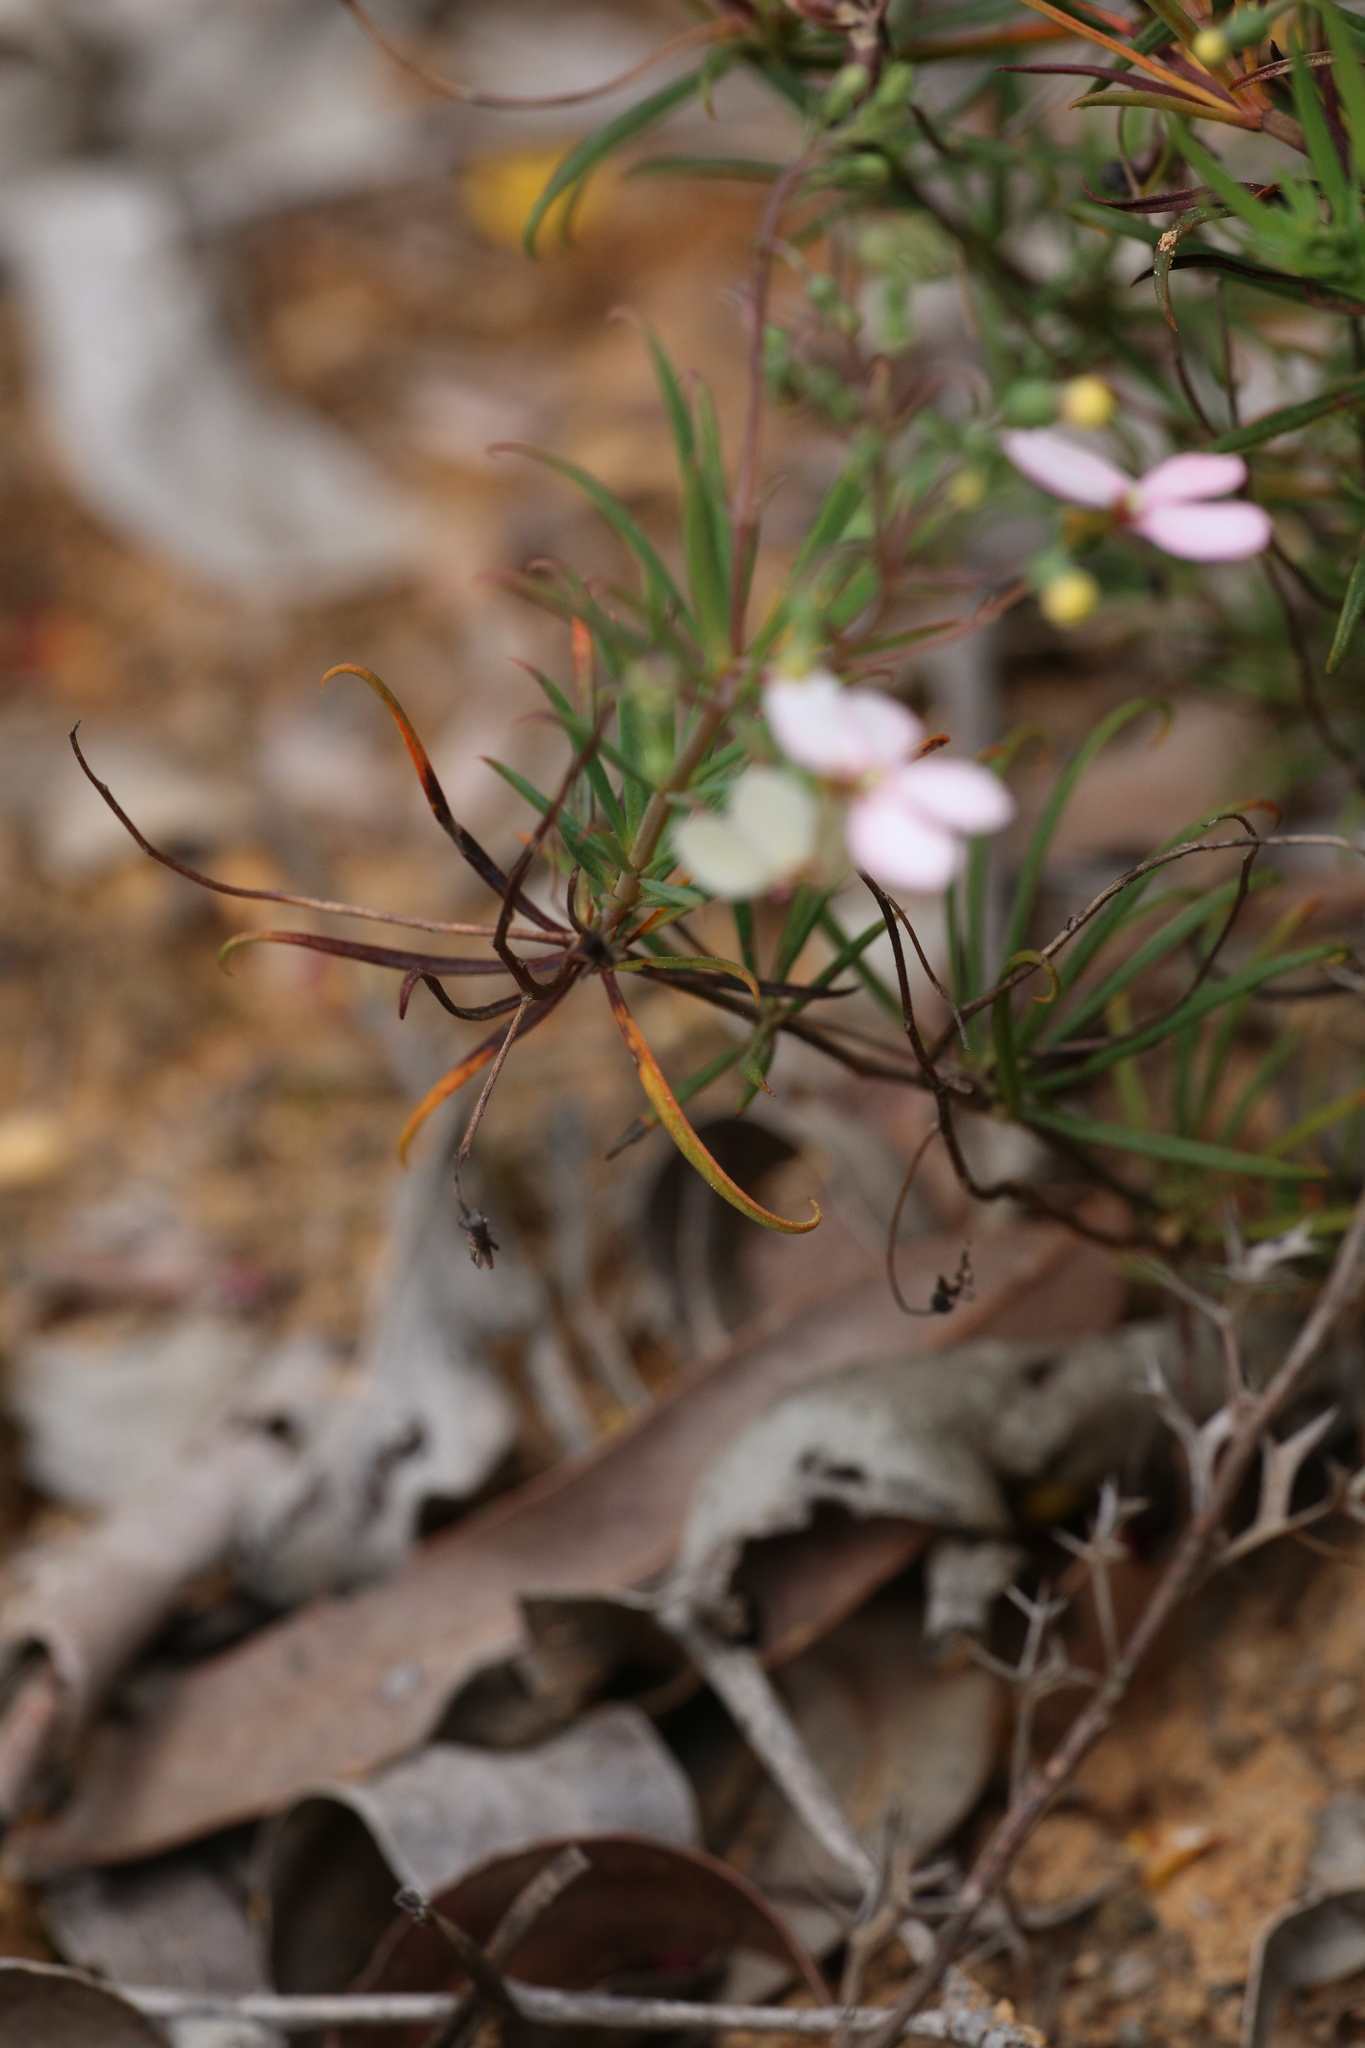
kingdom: Plantae
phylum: Tracheophyta
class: Magnoliopsida
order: Asterales
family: Stylidiaceae
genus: Stylidium
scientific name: Stylidium scandens
